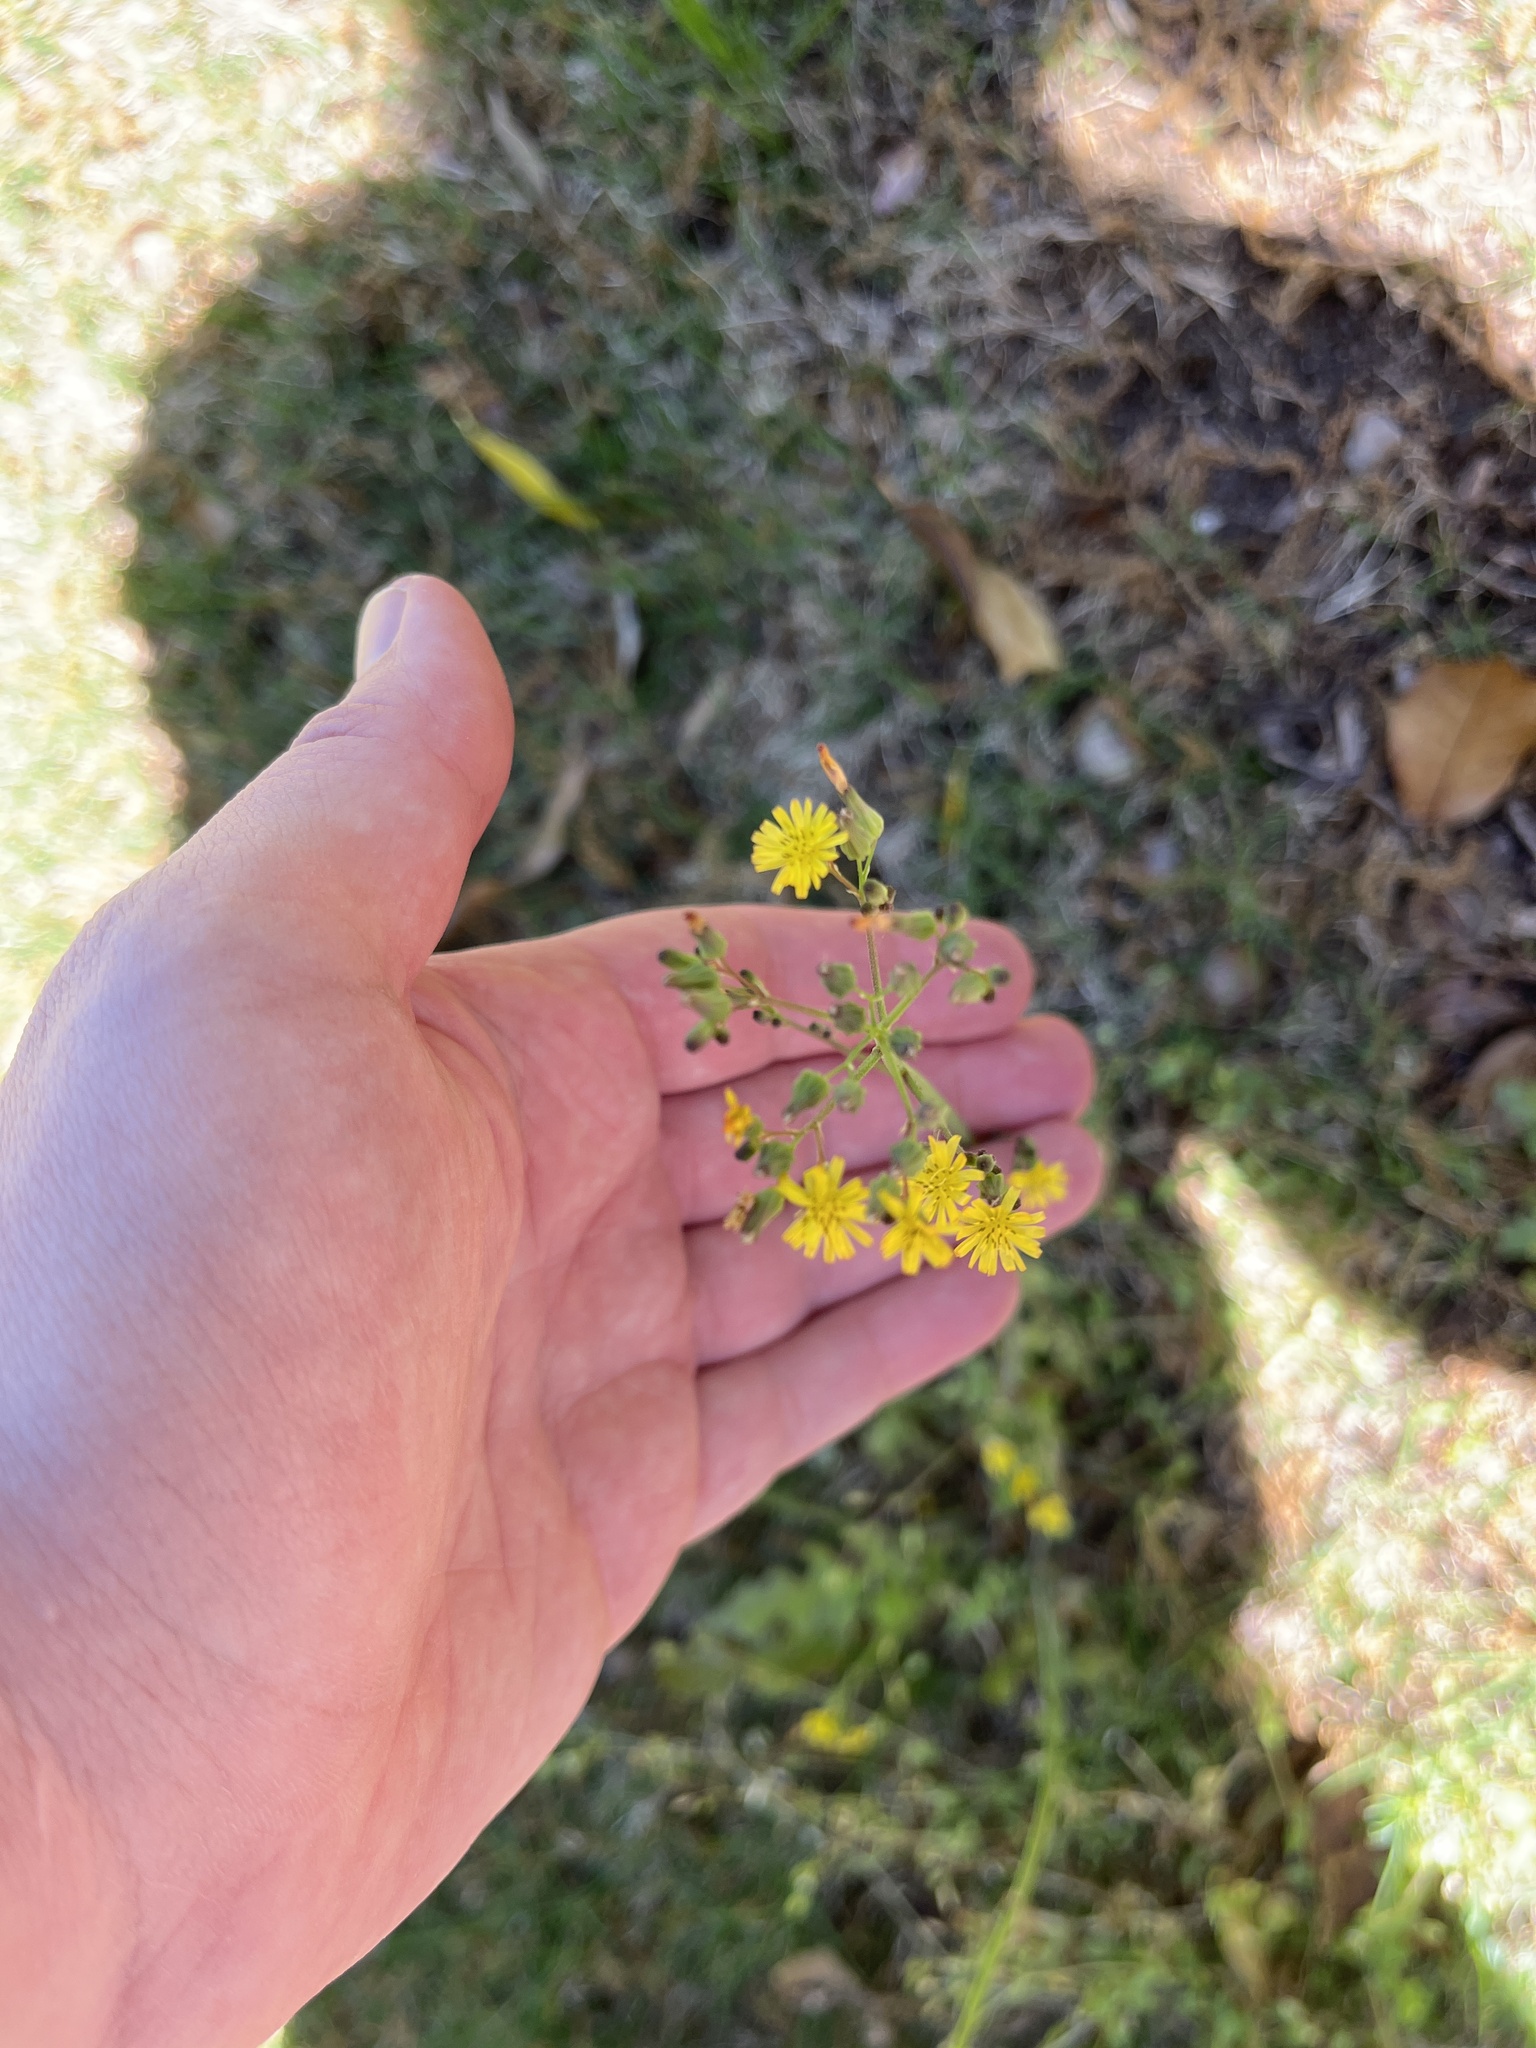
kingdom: Plantae
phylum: Tracheophyta
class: Magnoliopsida
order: Asterales
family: Asteraceae
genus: Youngia
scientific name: Youngia japonica
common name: Oriental false hawksbeard
